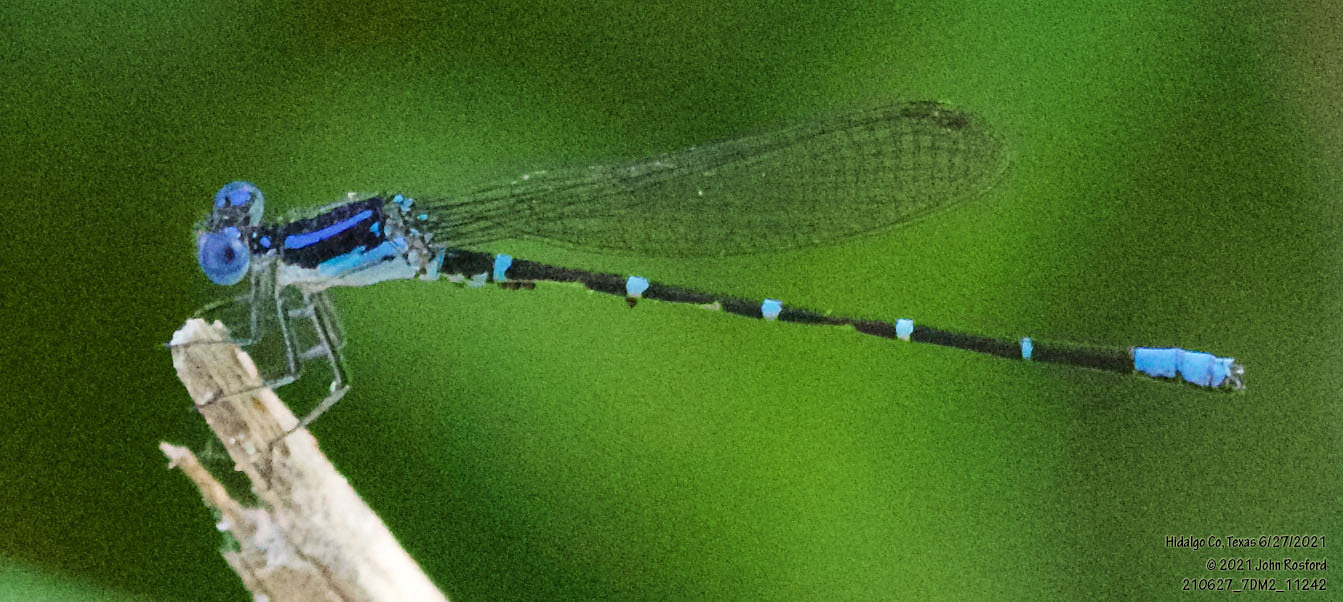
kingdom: Animalia
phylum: Arthropoda
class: Insecta
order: Odonata
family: Coenagrionidae
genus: Argia
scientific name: Argia sedula
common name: Blue-ringed dancer
